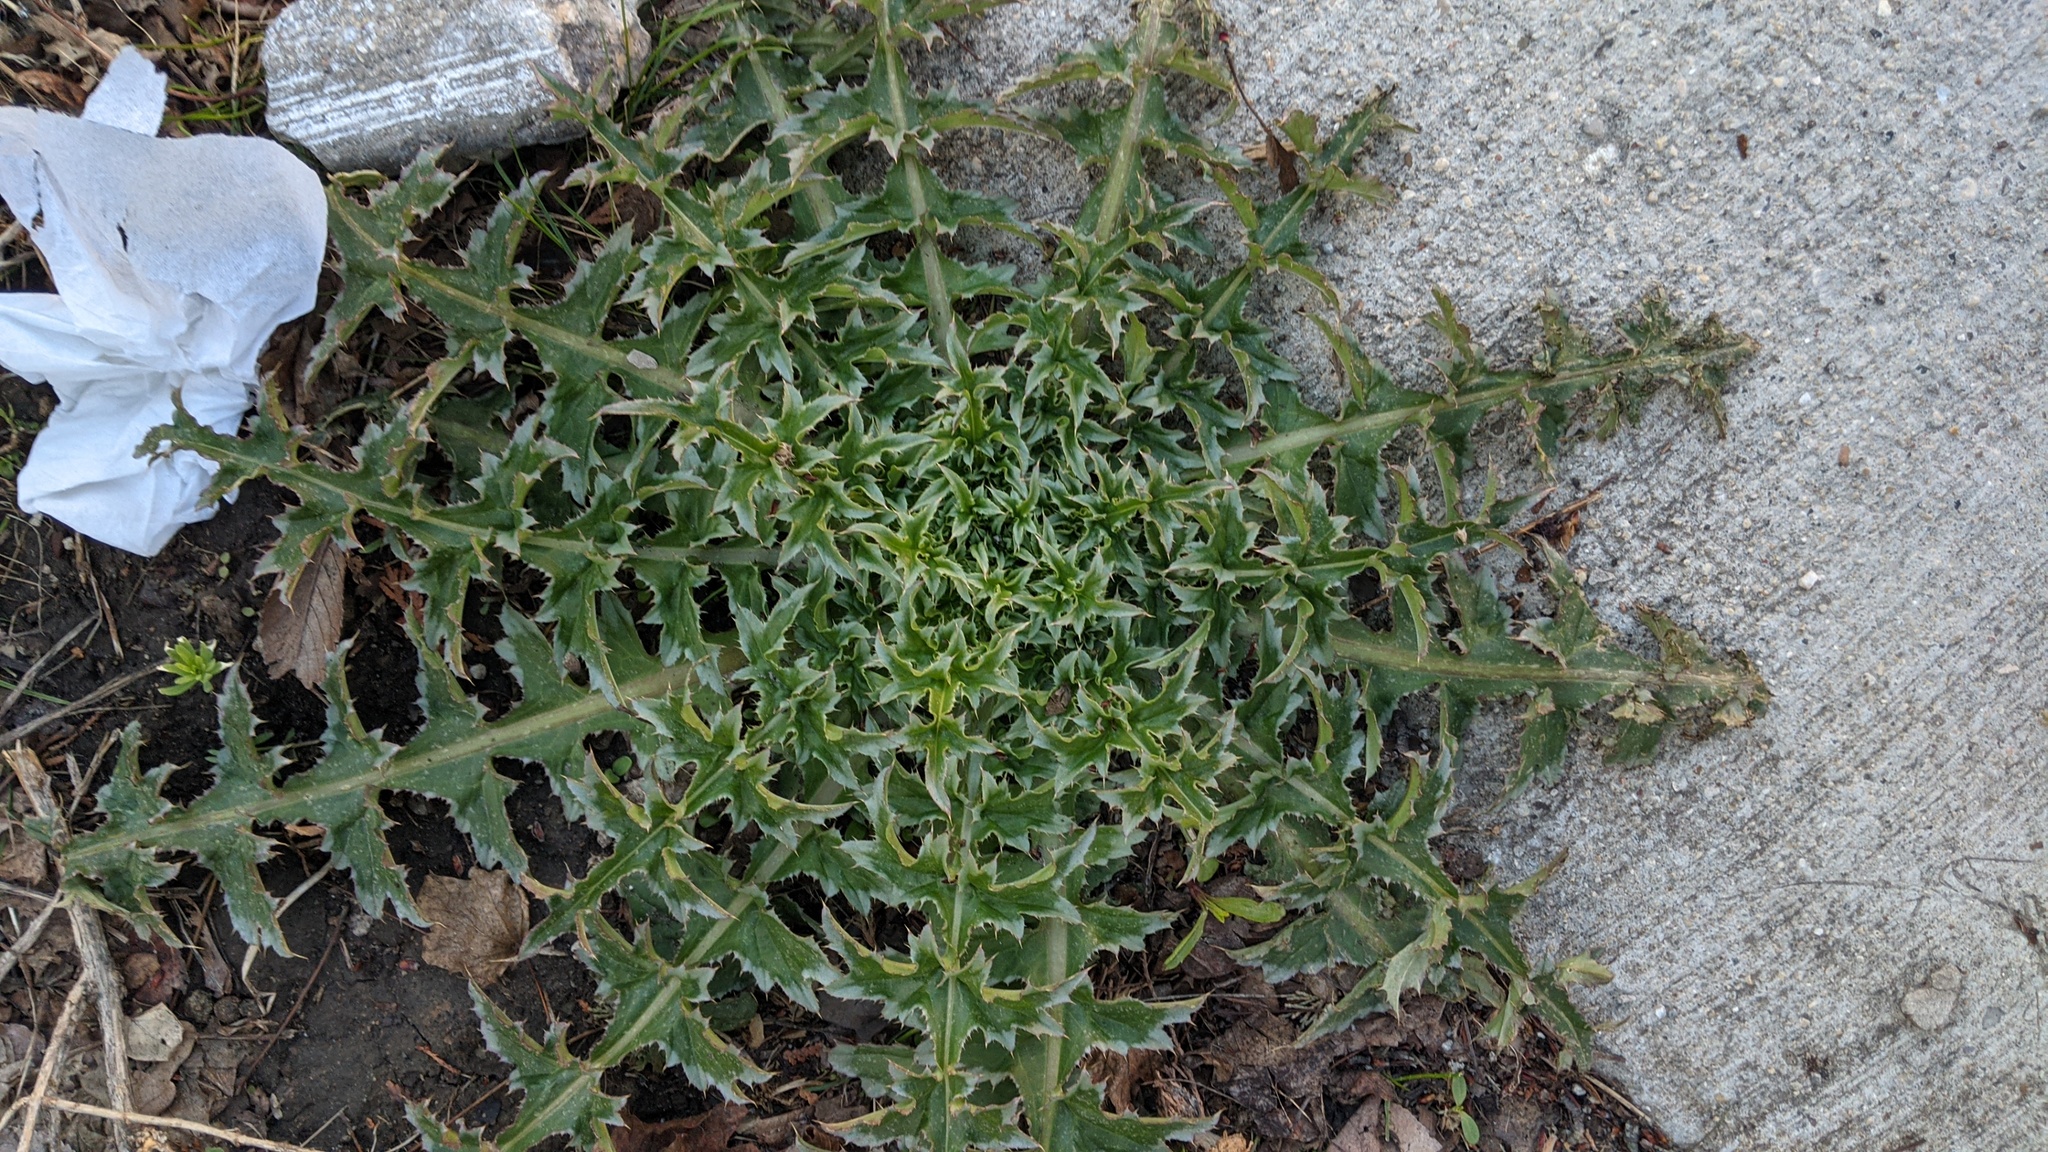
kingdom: Plantae
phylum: Tracheophyta
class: Magnoliopsida
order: Asterales
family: Asteraceae
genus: Carduus
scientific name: Carduus nutans
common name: Musk thistle
